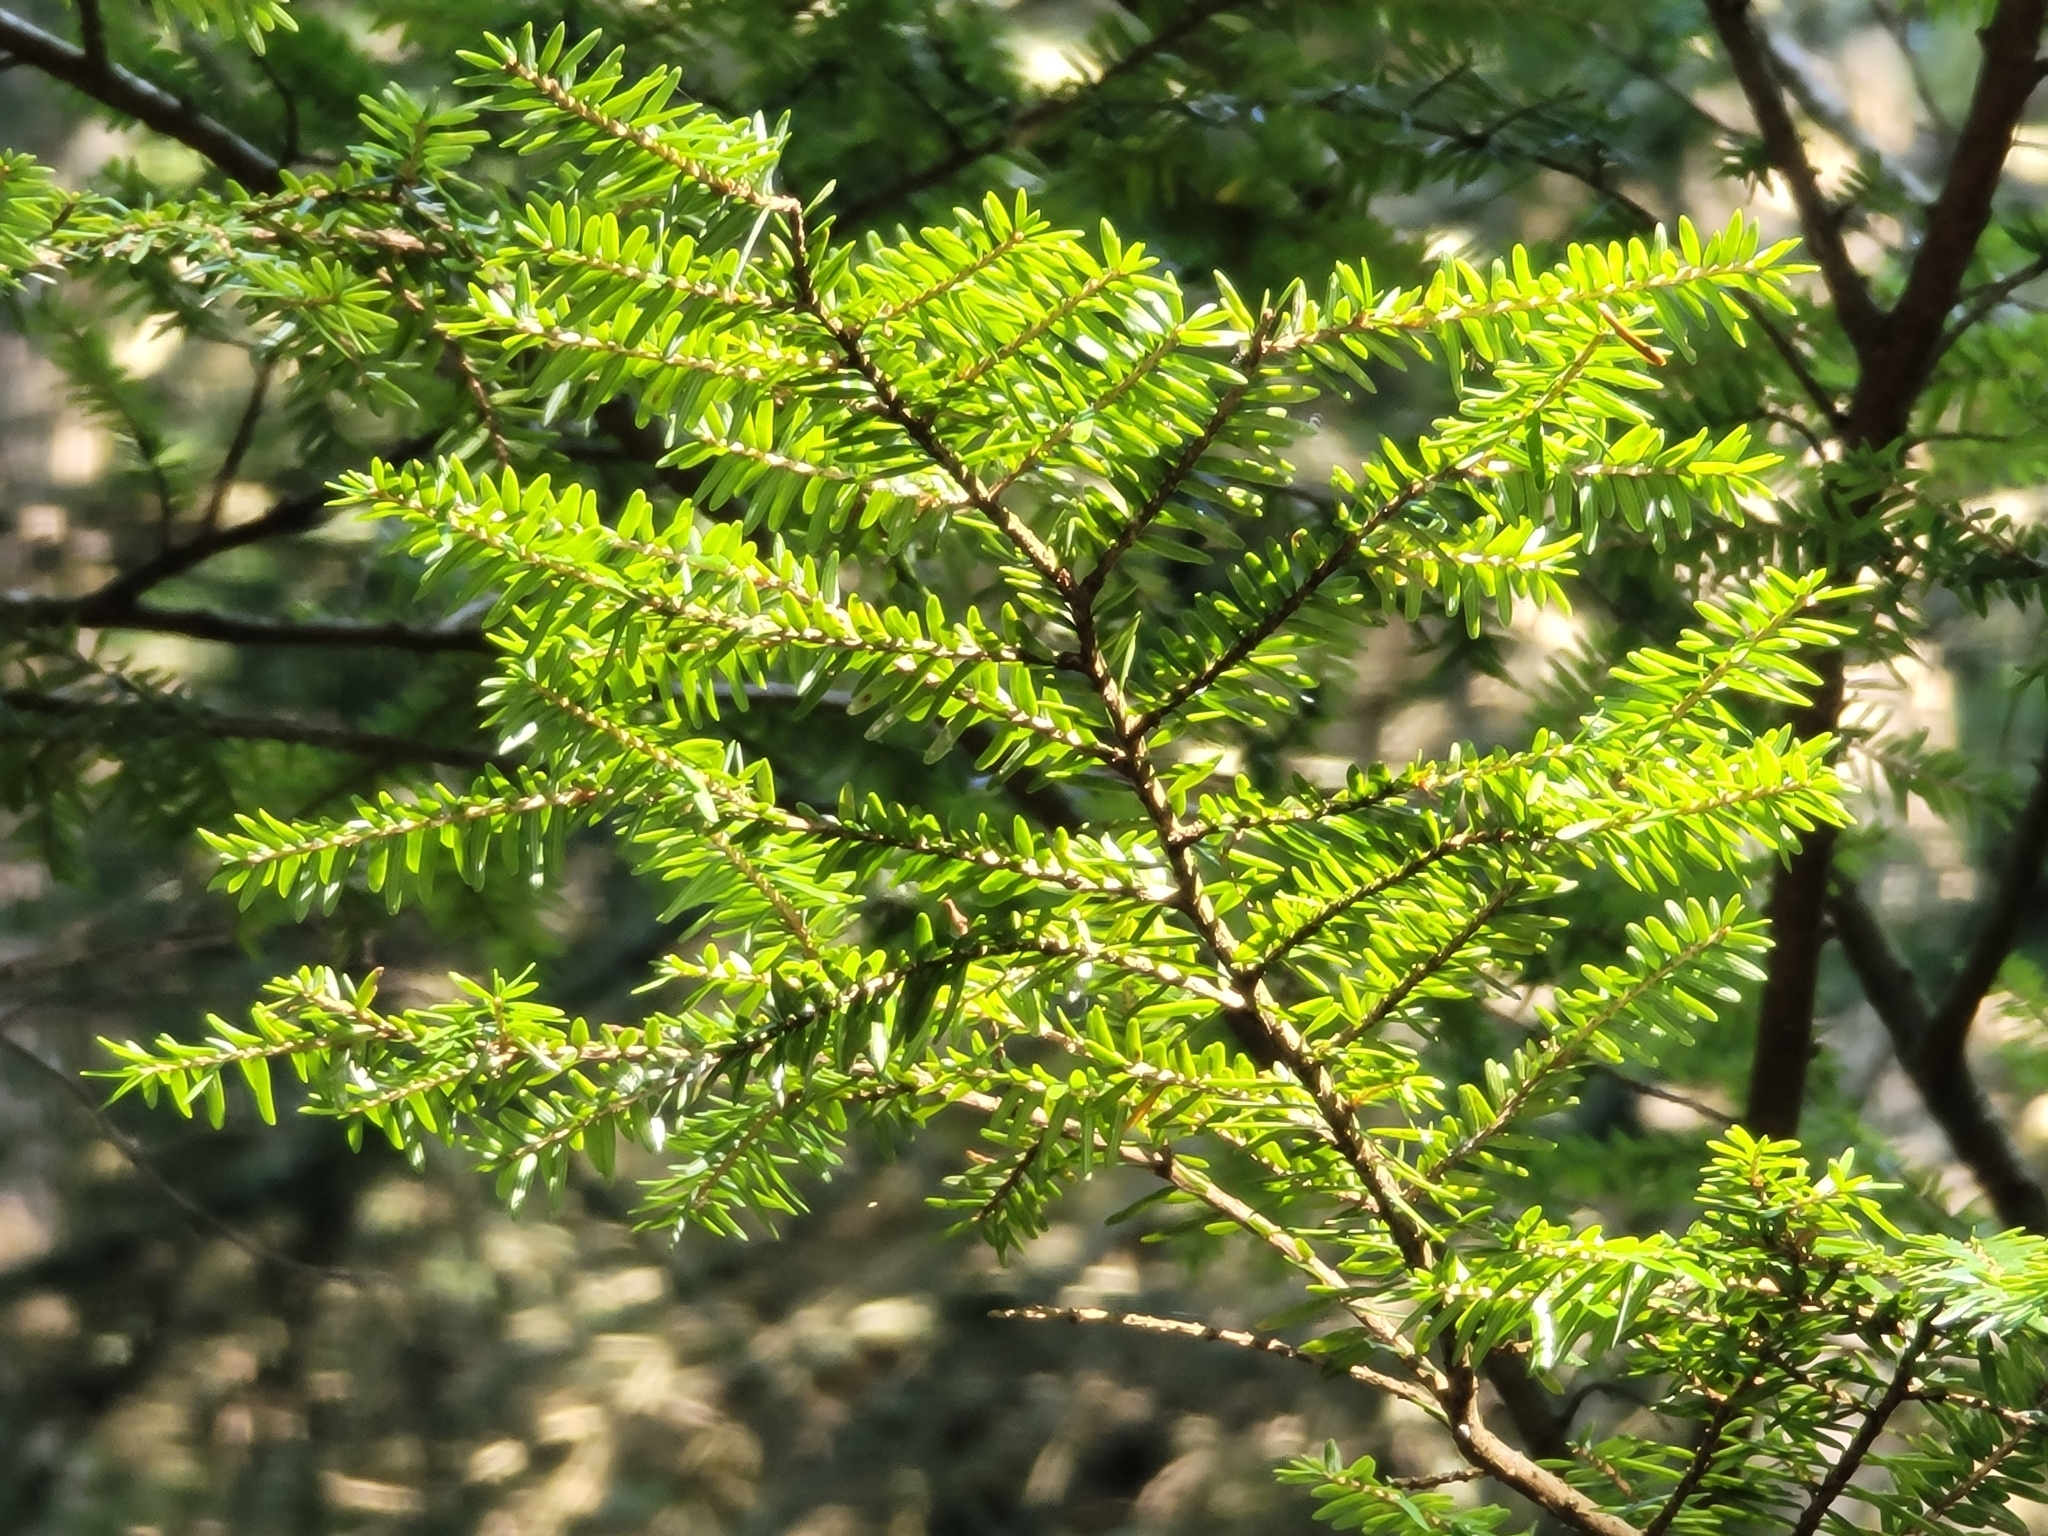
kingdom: Plantae
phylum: Tracheophyta
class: Pinopsida
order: Pinales
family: Pinaceae
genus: Tsuga
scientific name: Tsuga canadensis
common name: Eastern hemlock
